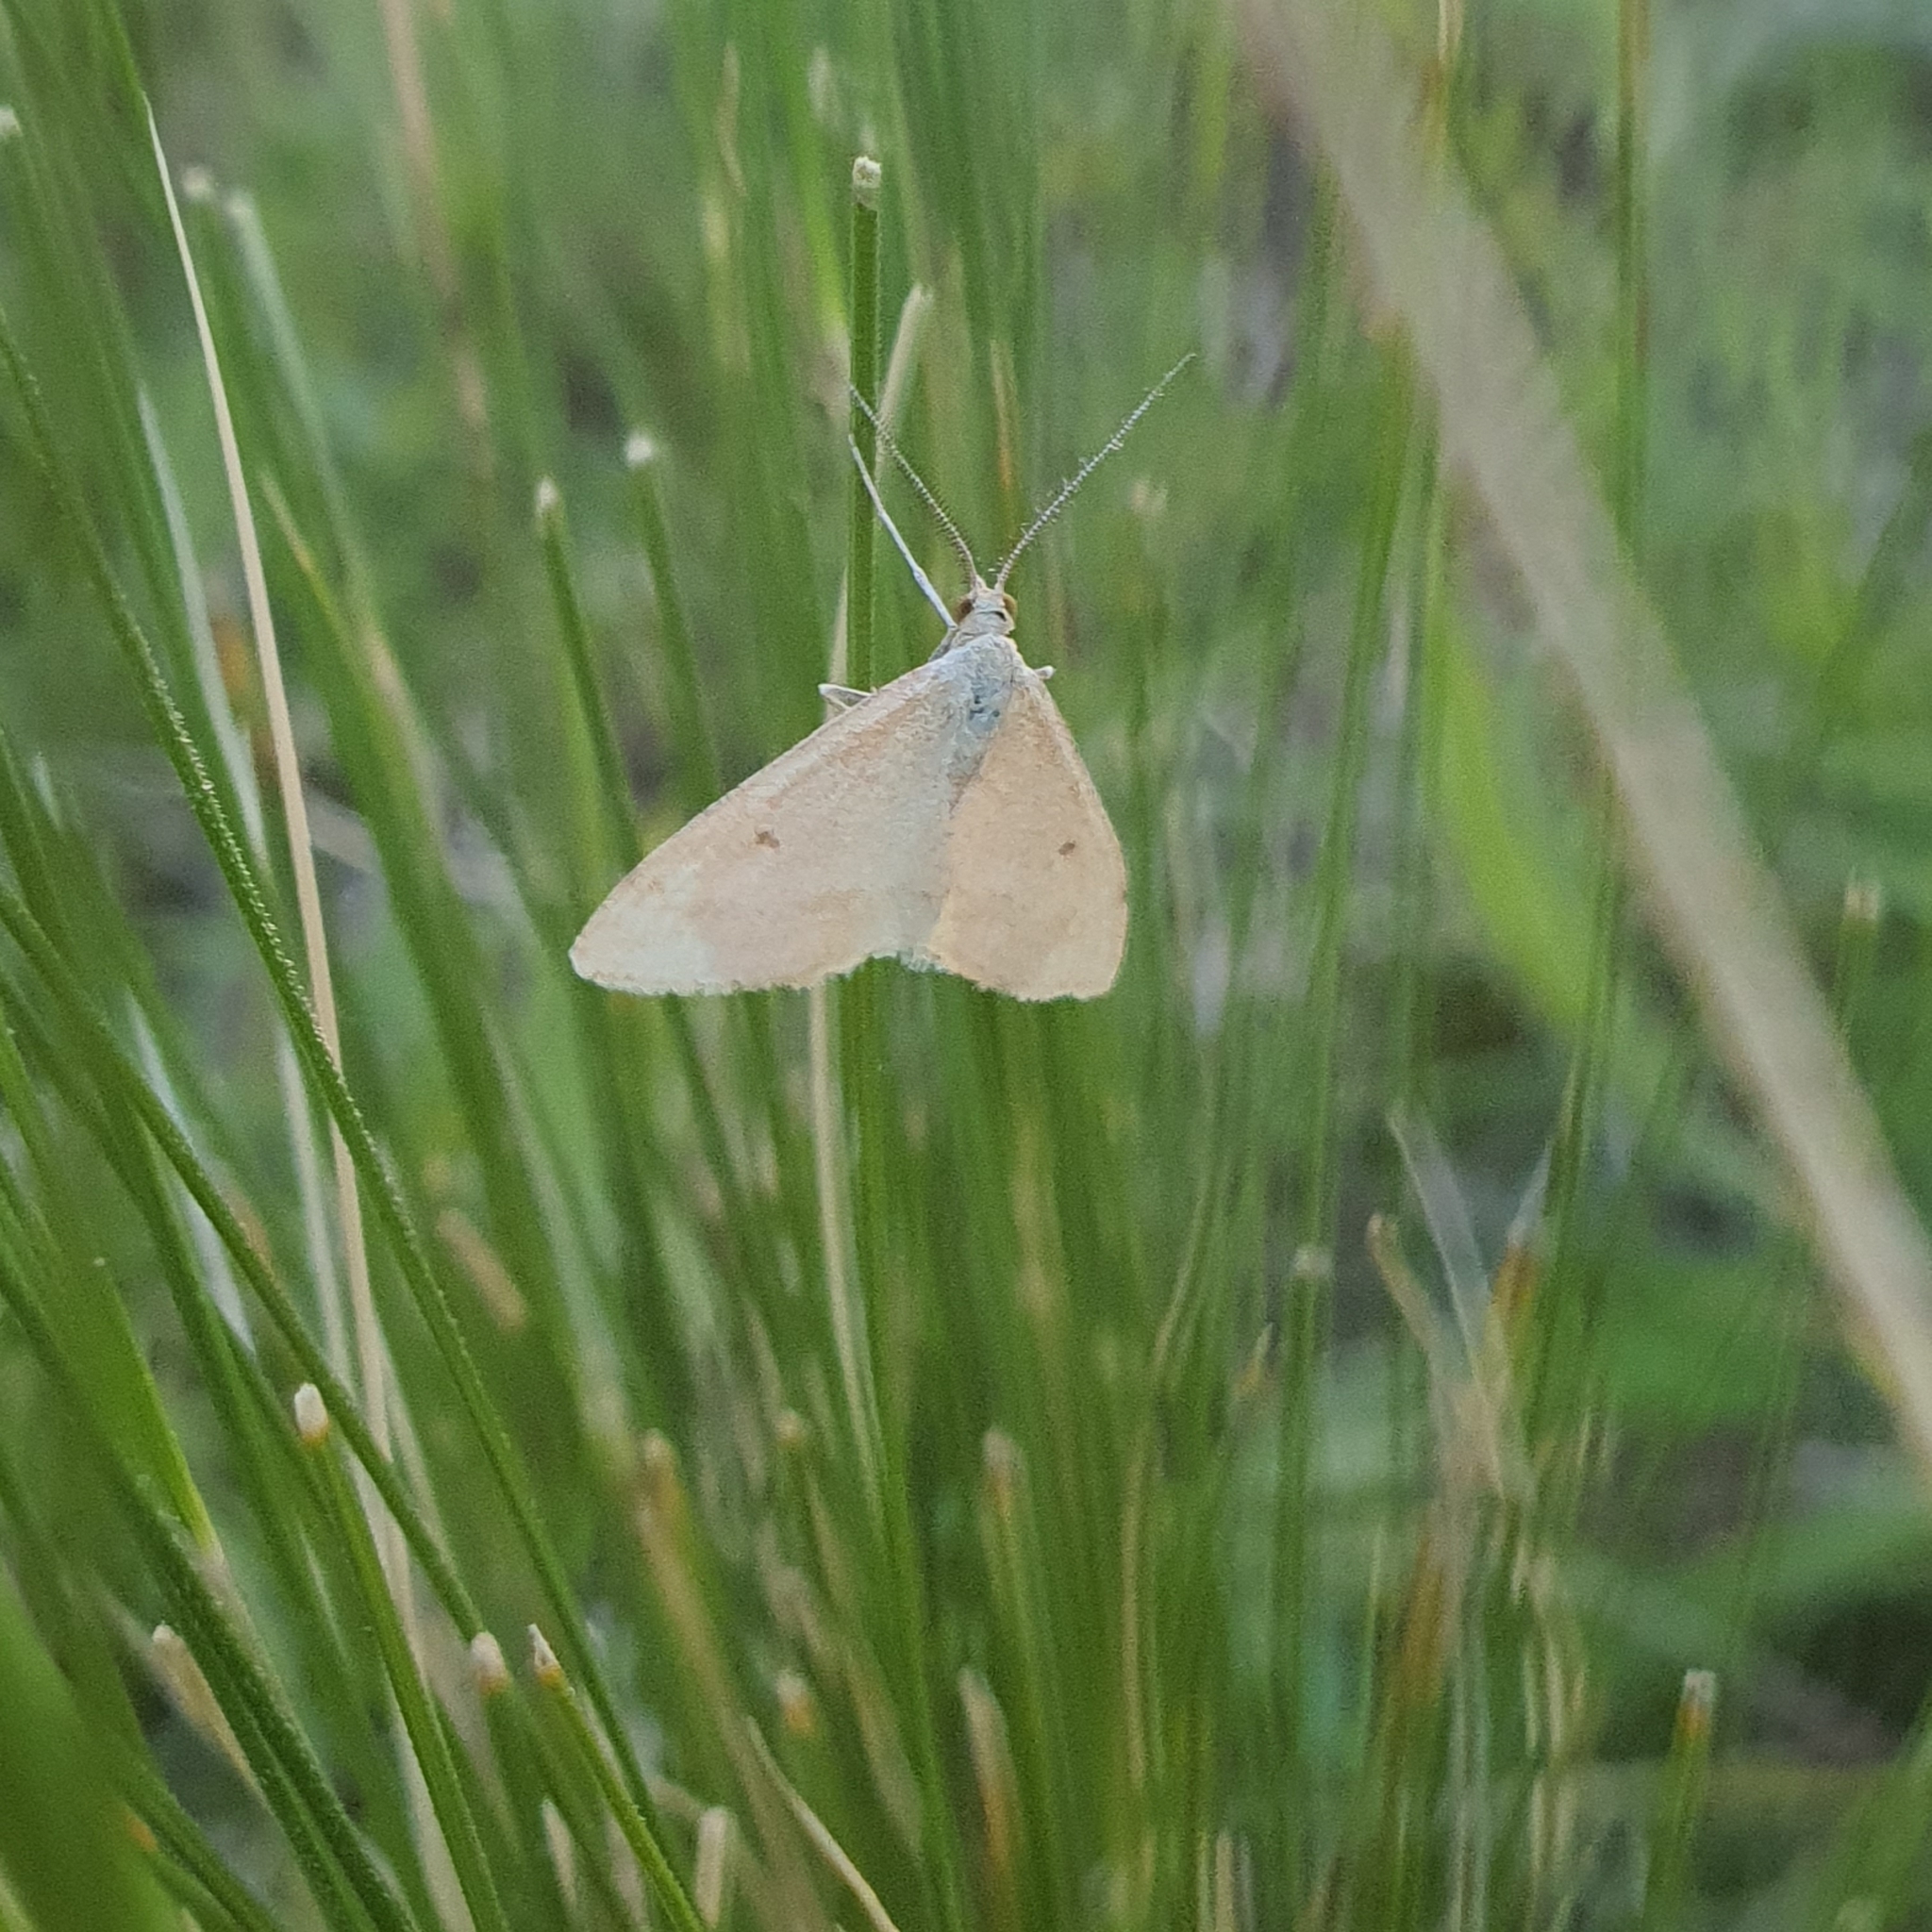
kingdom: Animalia
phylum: Arthropoda
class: Insecta
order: Lepidoptera
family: Geometridae
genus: Scopula
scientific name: Scopula rubraria
